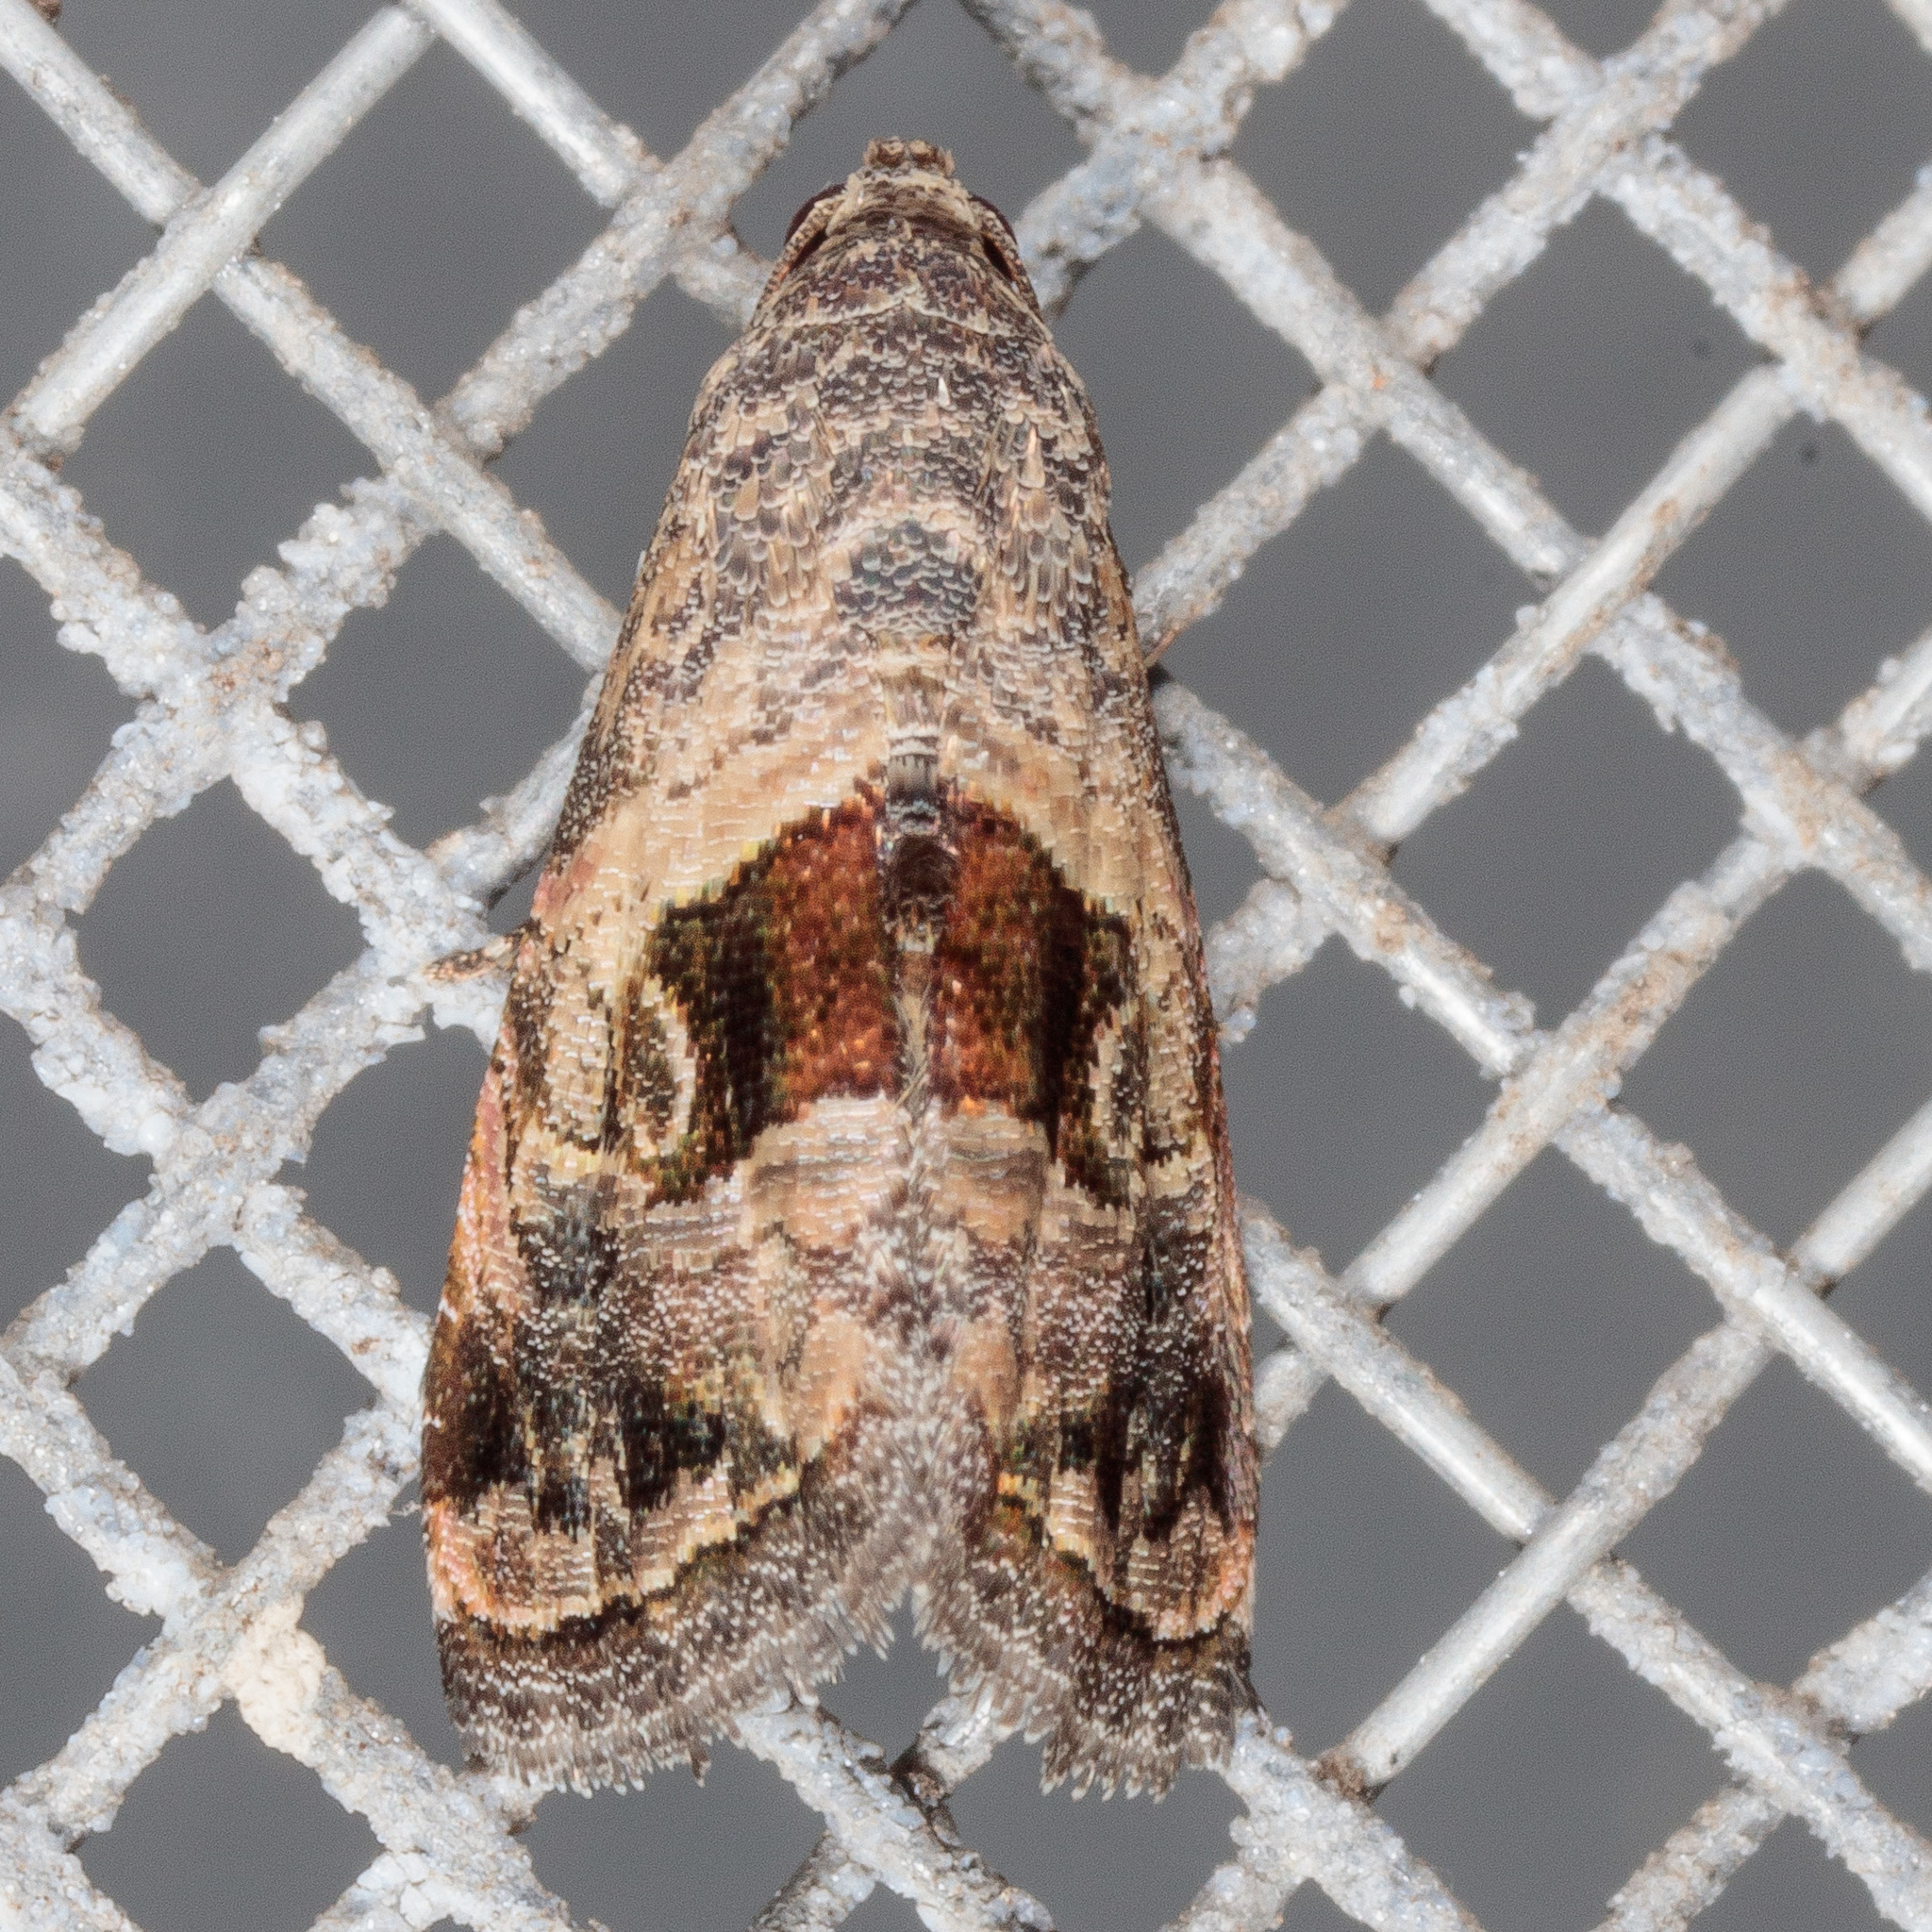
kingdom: Animalia
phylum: Arthropoda
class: Insecta
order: Lepidoptera
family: Noctuidae
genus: Tripudia
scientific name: Tripudia quadrifera
